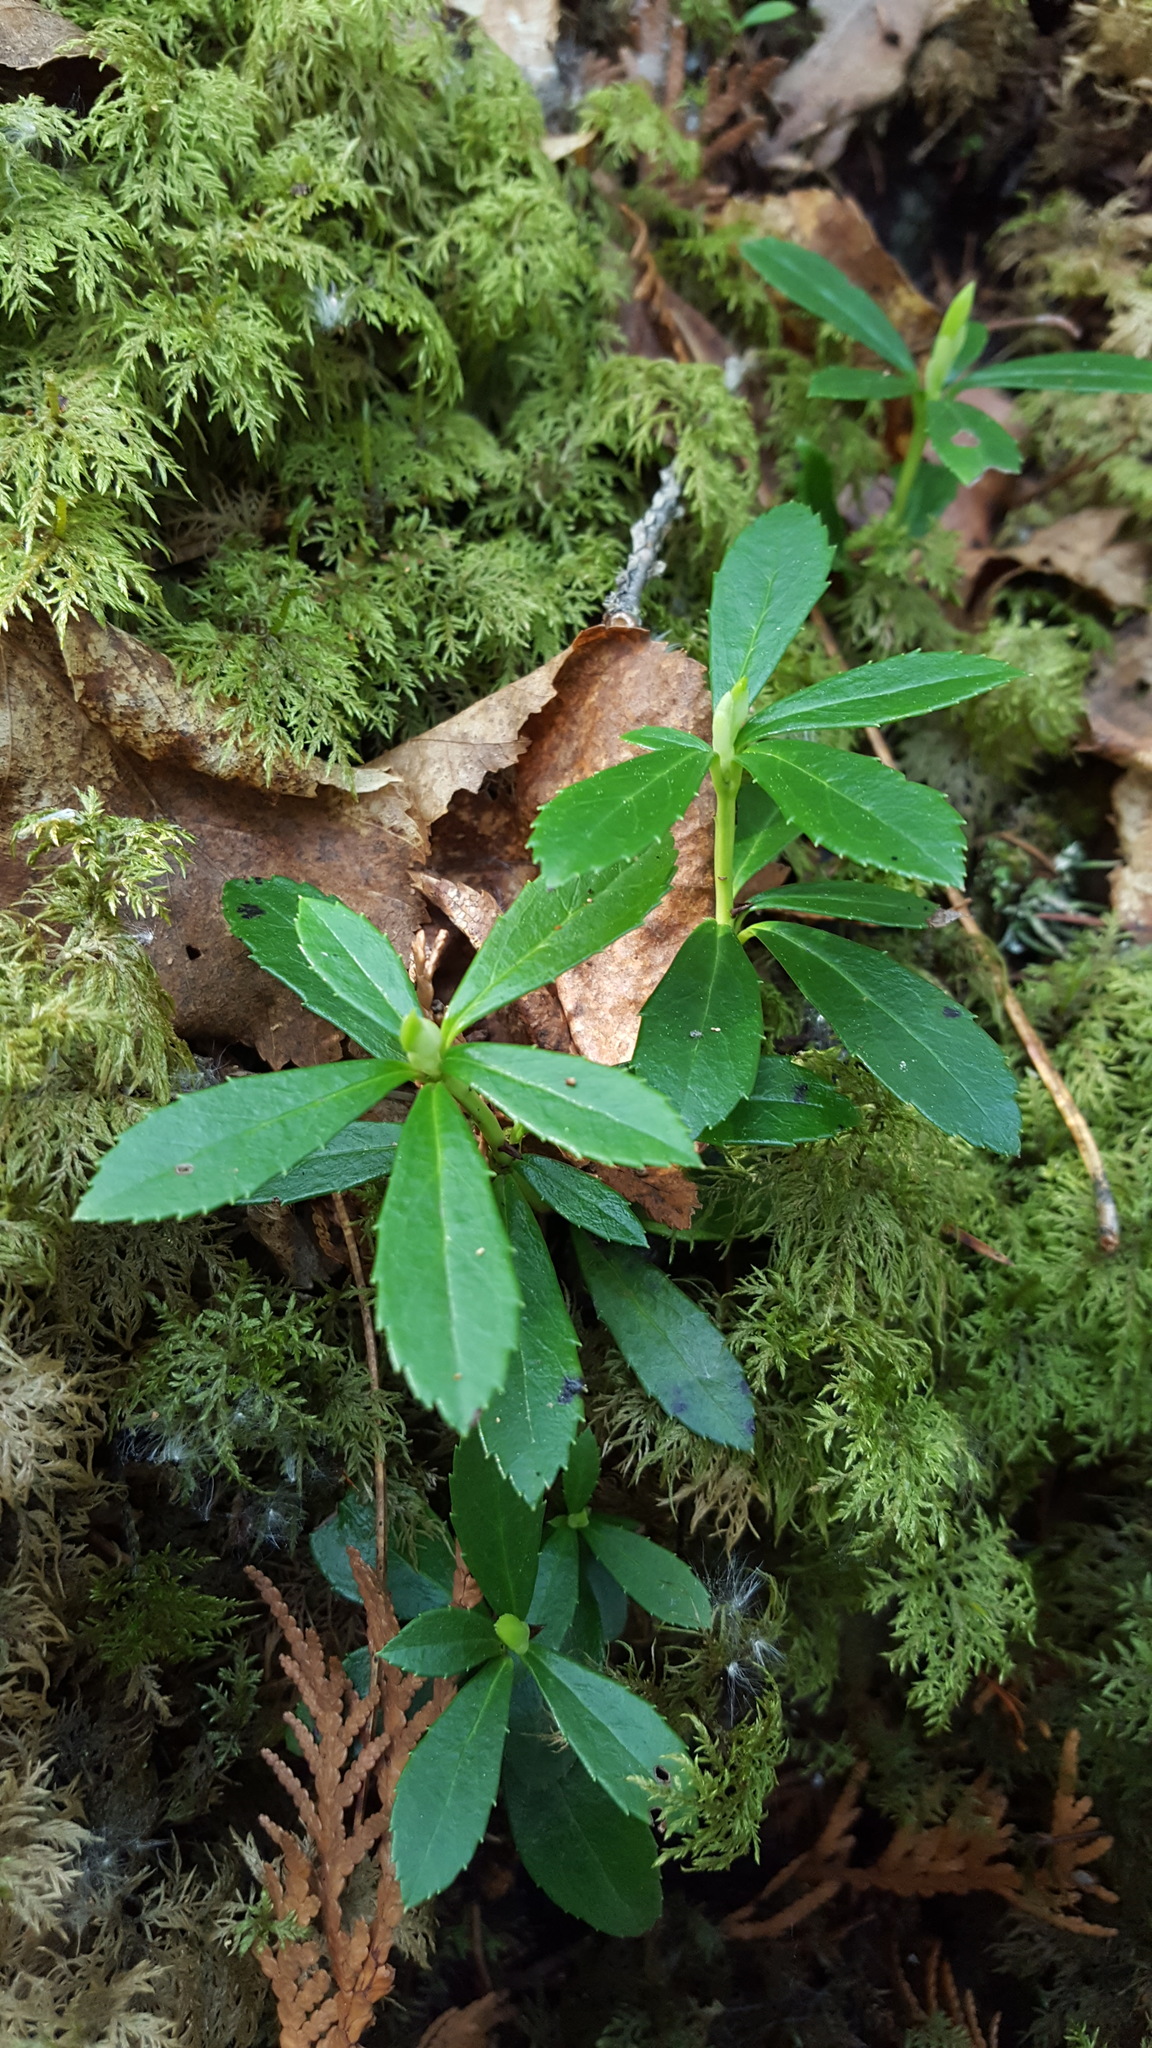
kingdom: Plantae
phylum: Tracheophyta
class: Magnoliopsida
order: Ericales
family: Ericaceae
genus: Chimaphila
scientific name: Chimaphila umbellata
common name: Pipsissewa
